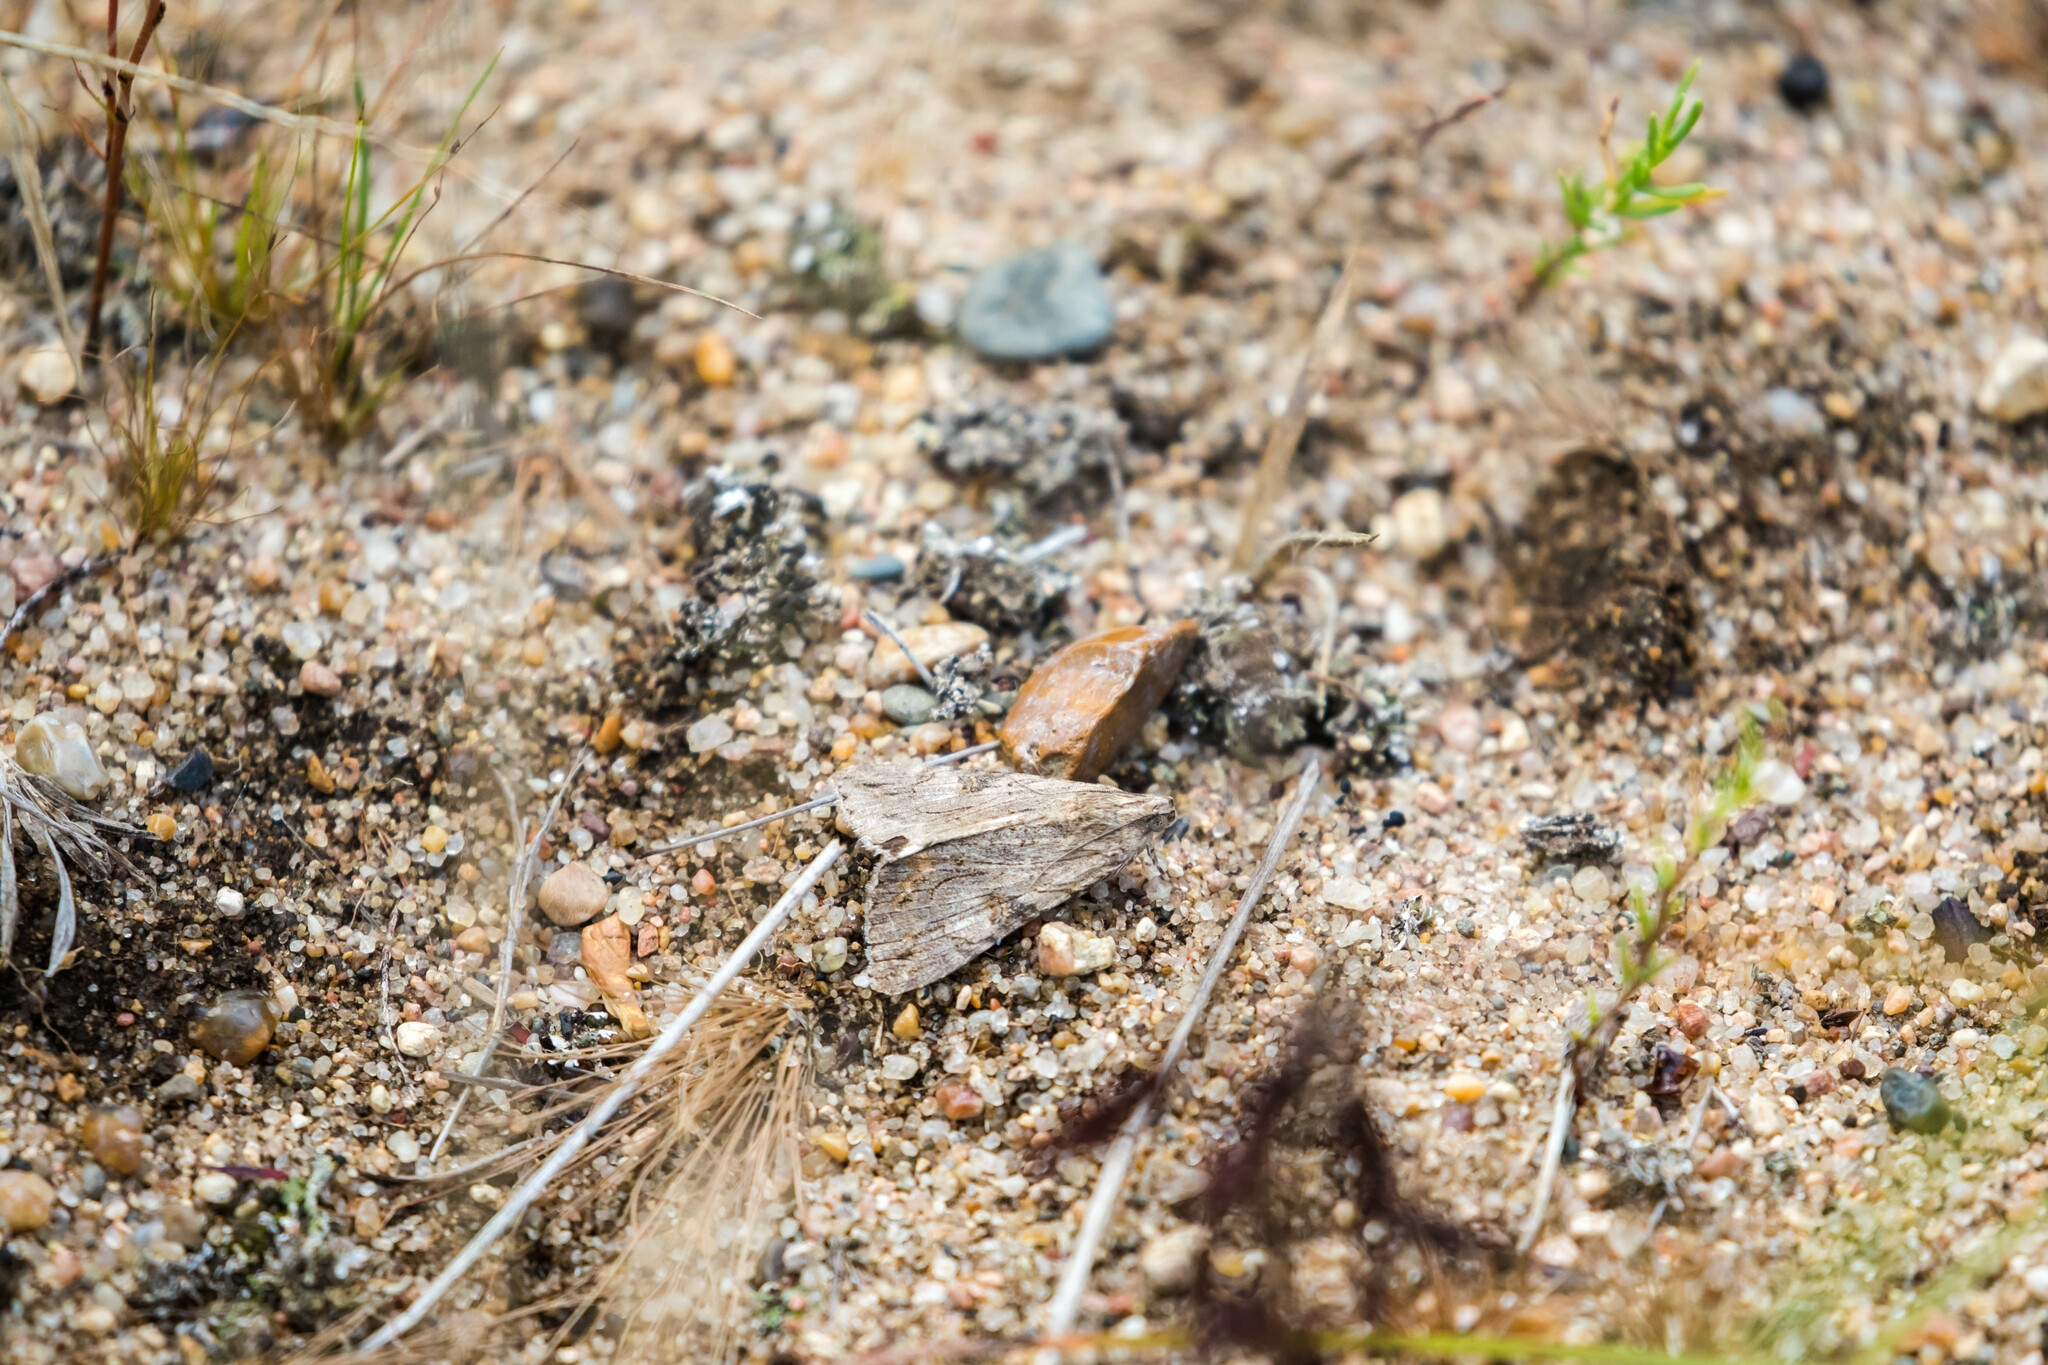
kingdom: Animalia
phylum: Arthropoda
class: Insecta
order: Lepidoptera
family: Erebidae
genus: Melipotis
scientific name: Melipotis jucunda
